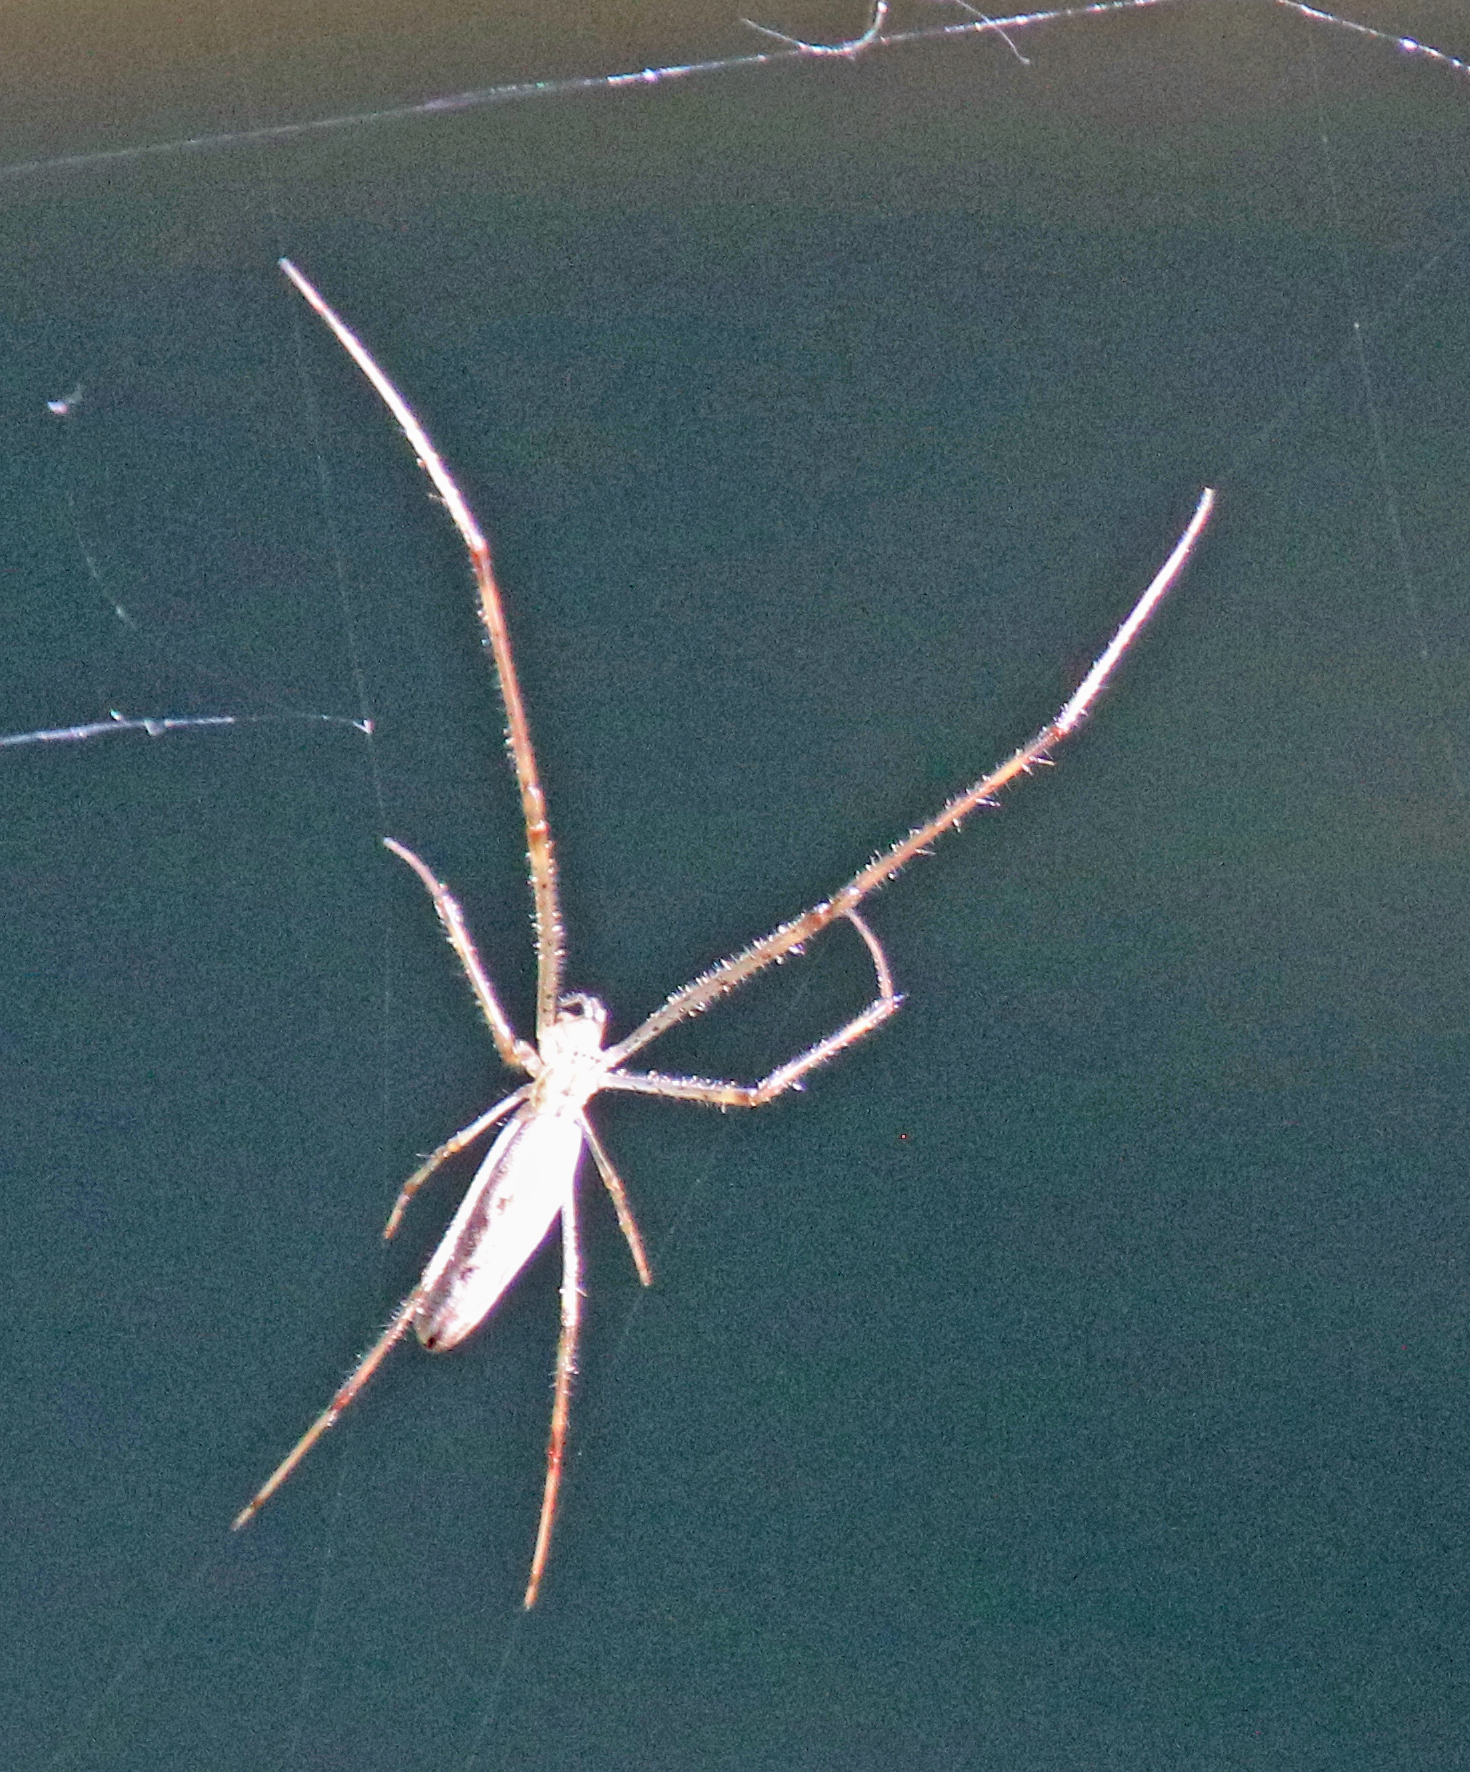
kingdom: Animalia
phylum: Arthropoda
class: Arachnida
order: Araneae
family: Tetragnathidae
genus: Tetragnatha
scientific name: Tetragnatha
